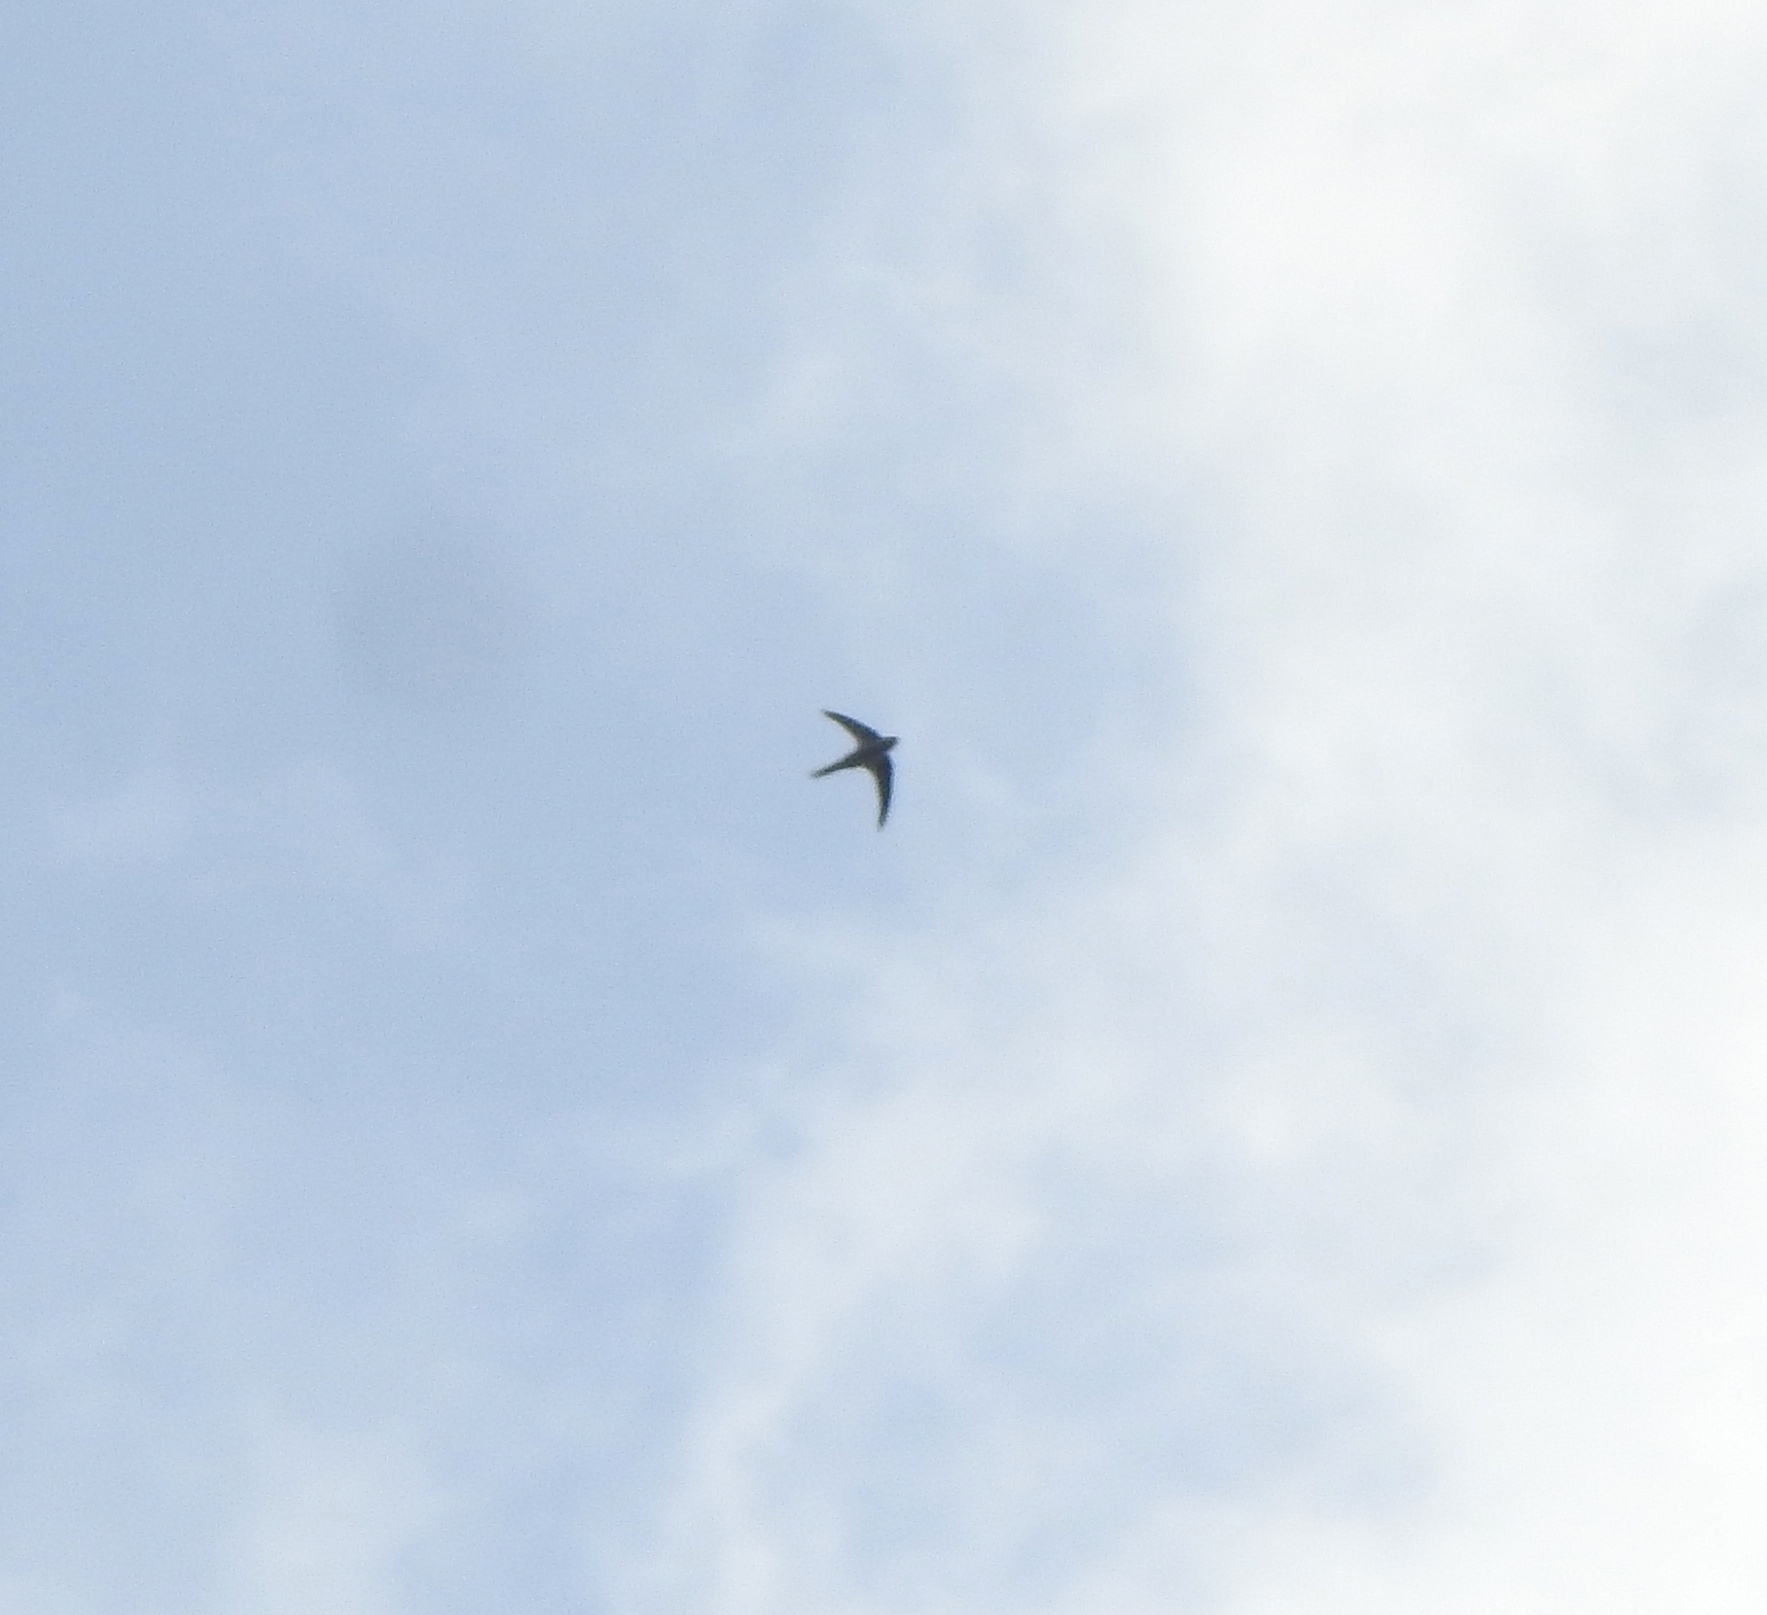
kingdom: Animalia
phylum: Chordata
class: Aves
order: Apodiformes
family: Apodidae
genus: Cypsiurus
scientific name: Cypsiurus balasiensis
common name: Asian palm swift
